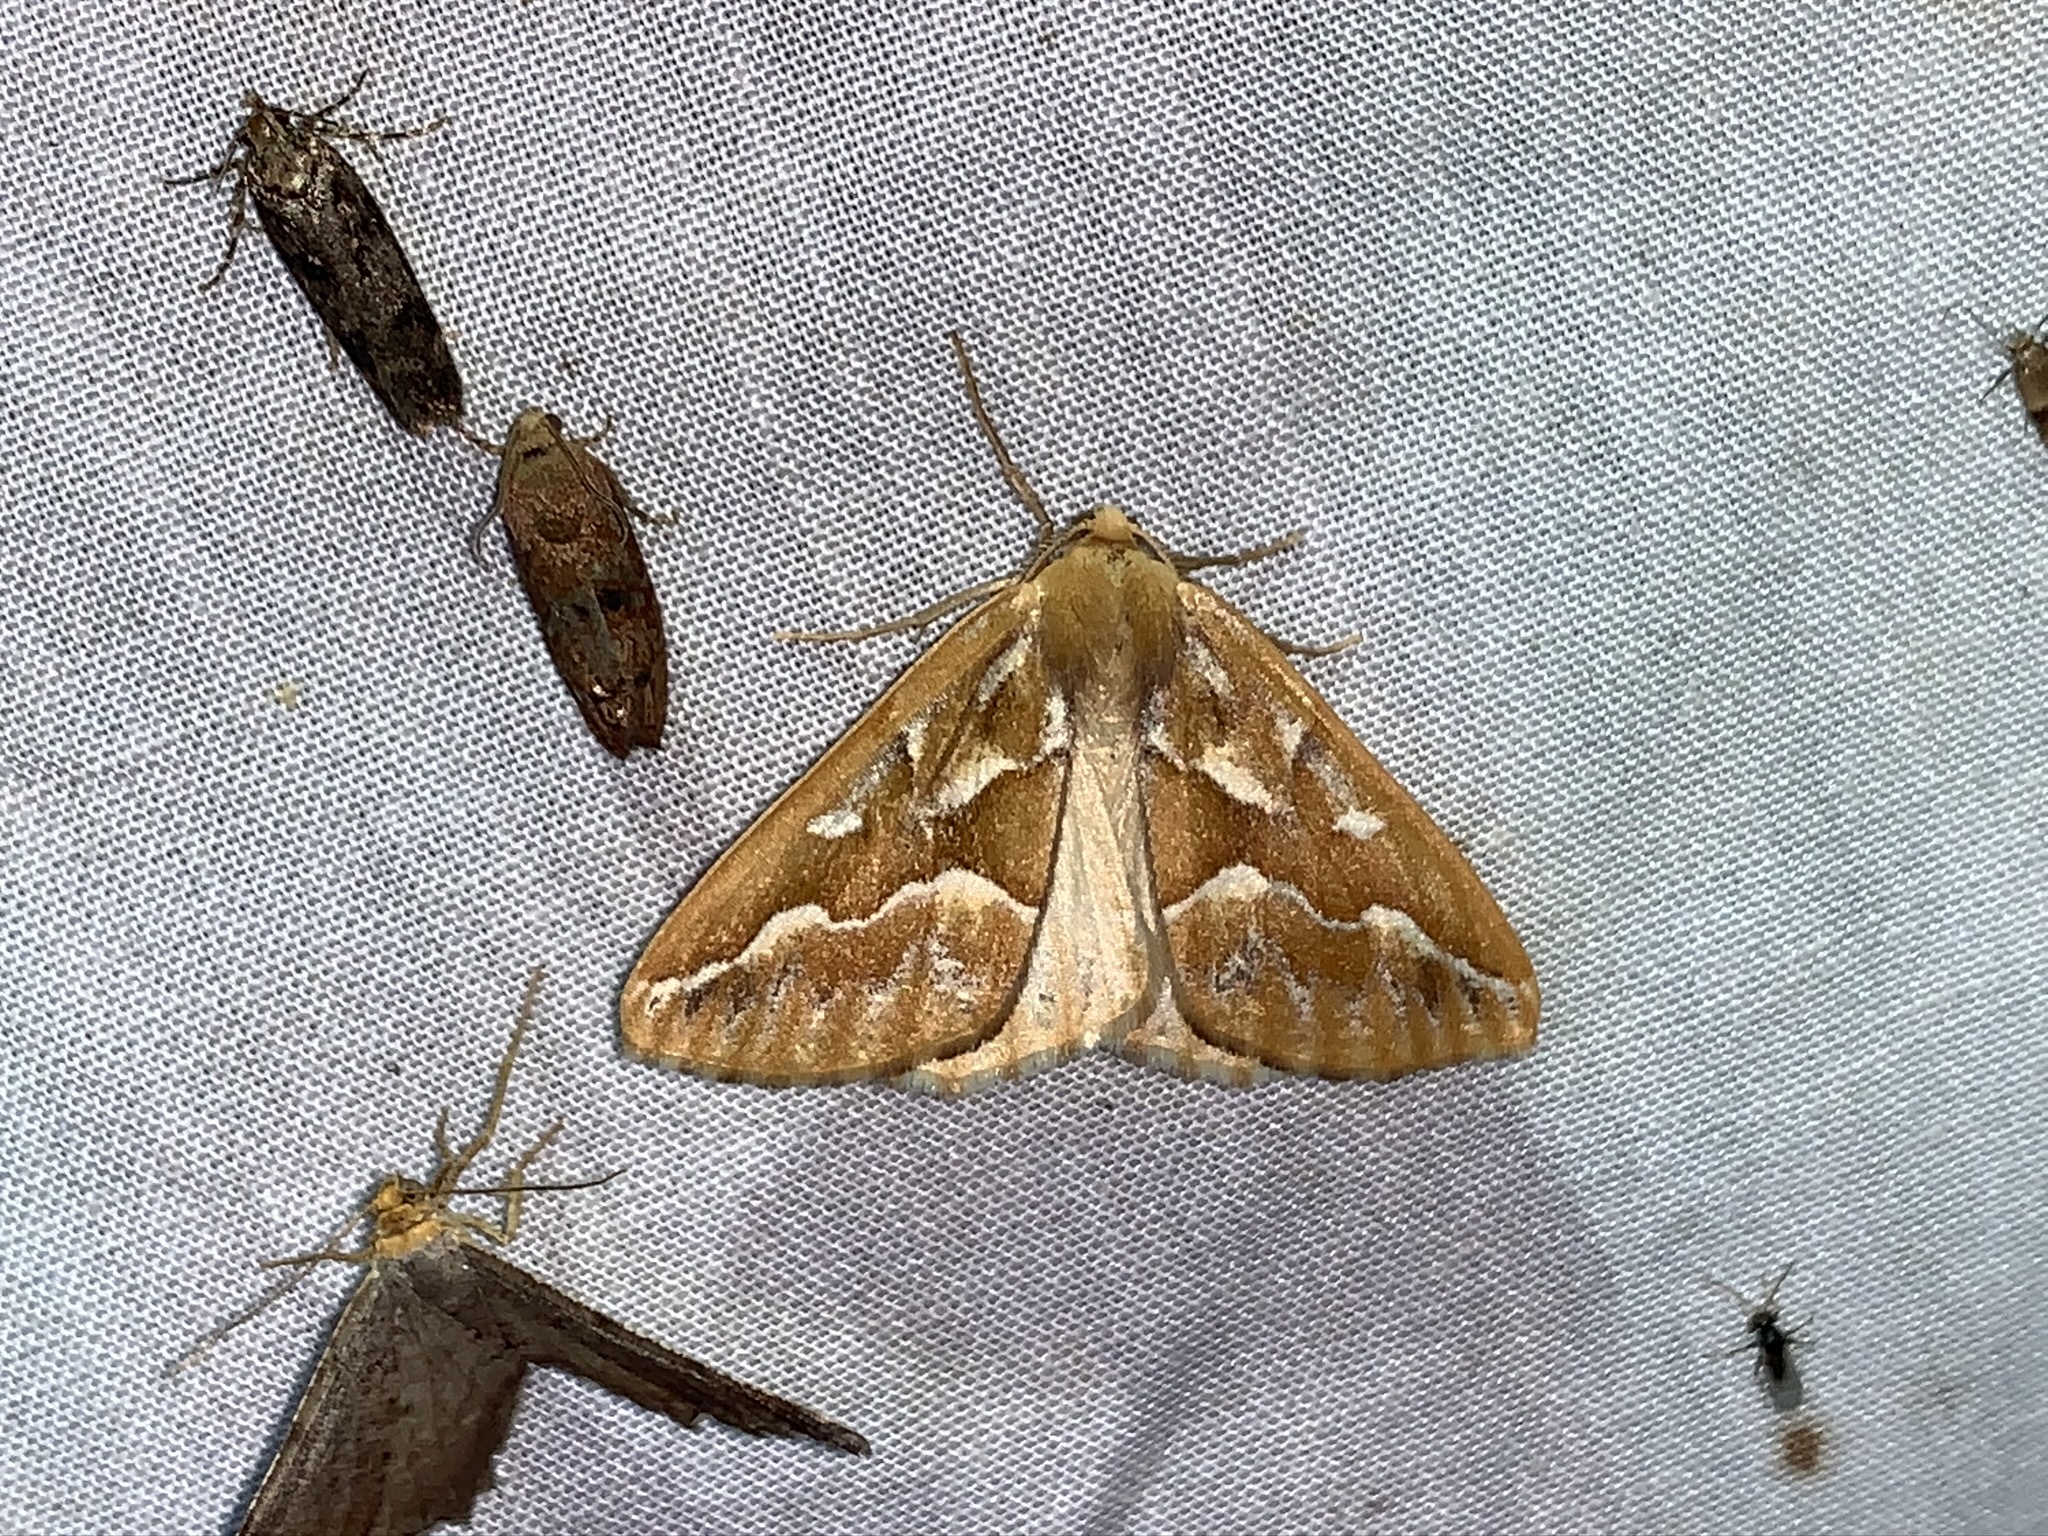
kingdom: Animalia
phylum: Arthropoda
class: Insecta
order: Lepidoptera
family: Geometridae
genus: Caripeta
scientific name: Caripeta piniata
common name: Northern pine looper moth
